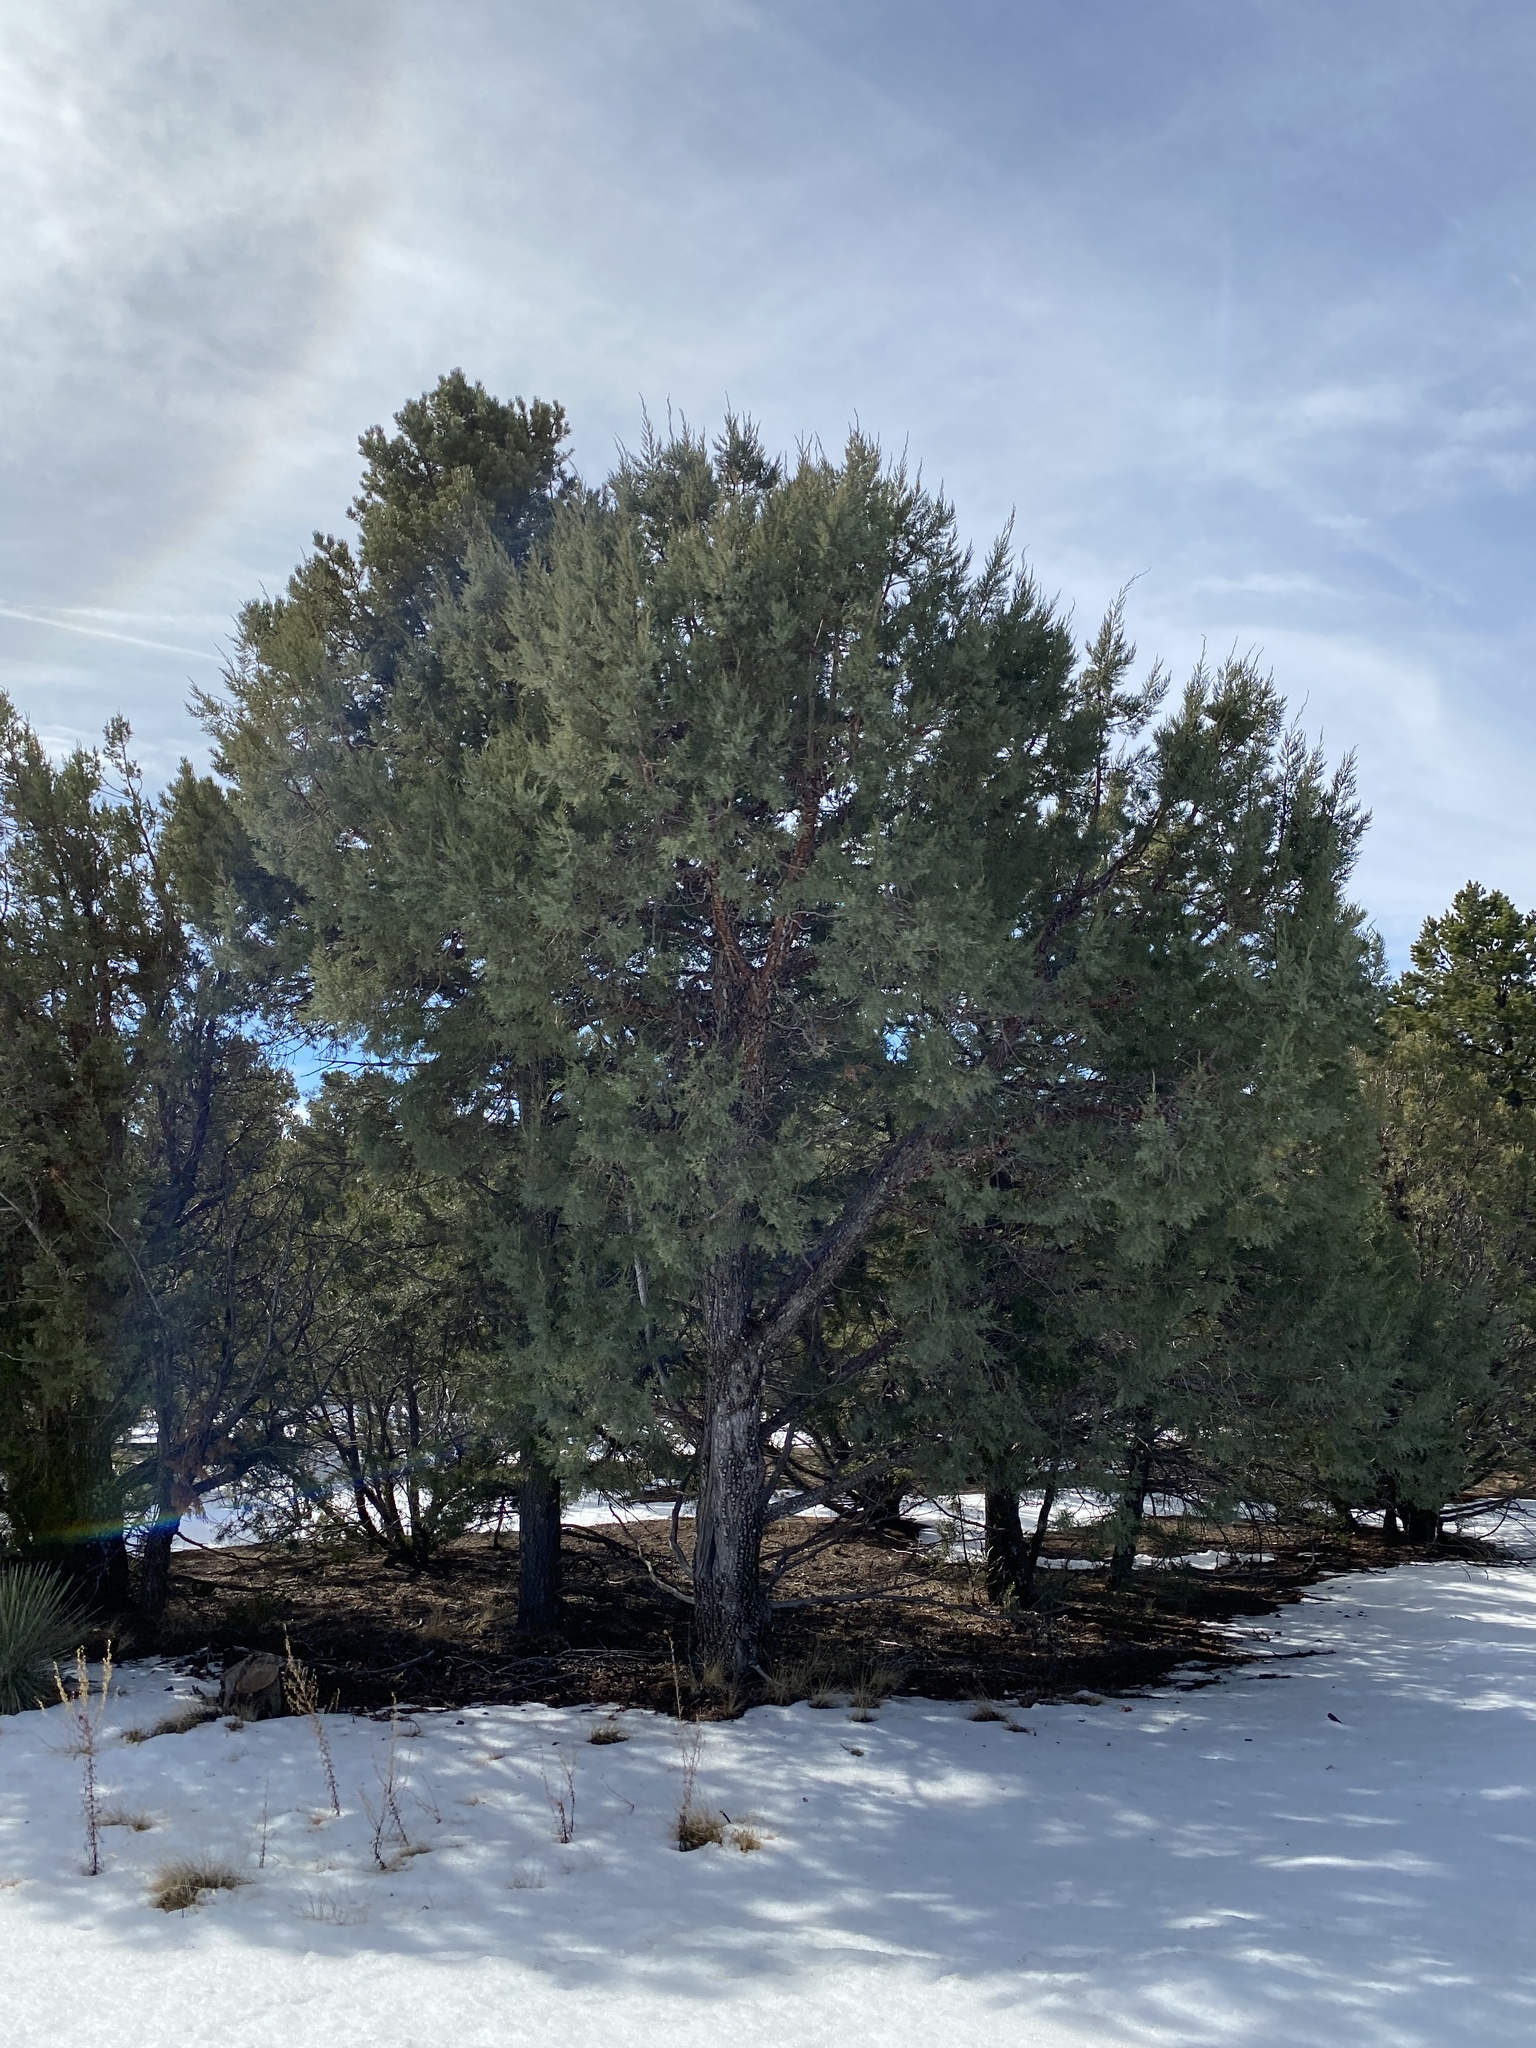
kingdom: Plantae
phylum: Tracheophyta
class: Pinopsida
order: Pinales
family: Cupressaceae
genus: Juniperus
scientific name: Juniperus deppeana
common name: Alligator juniper
